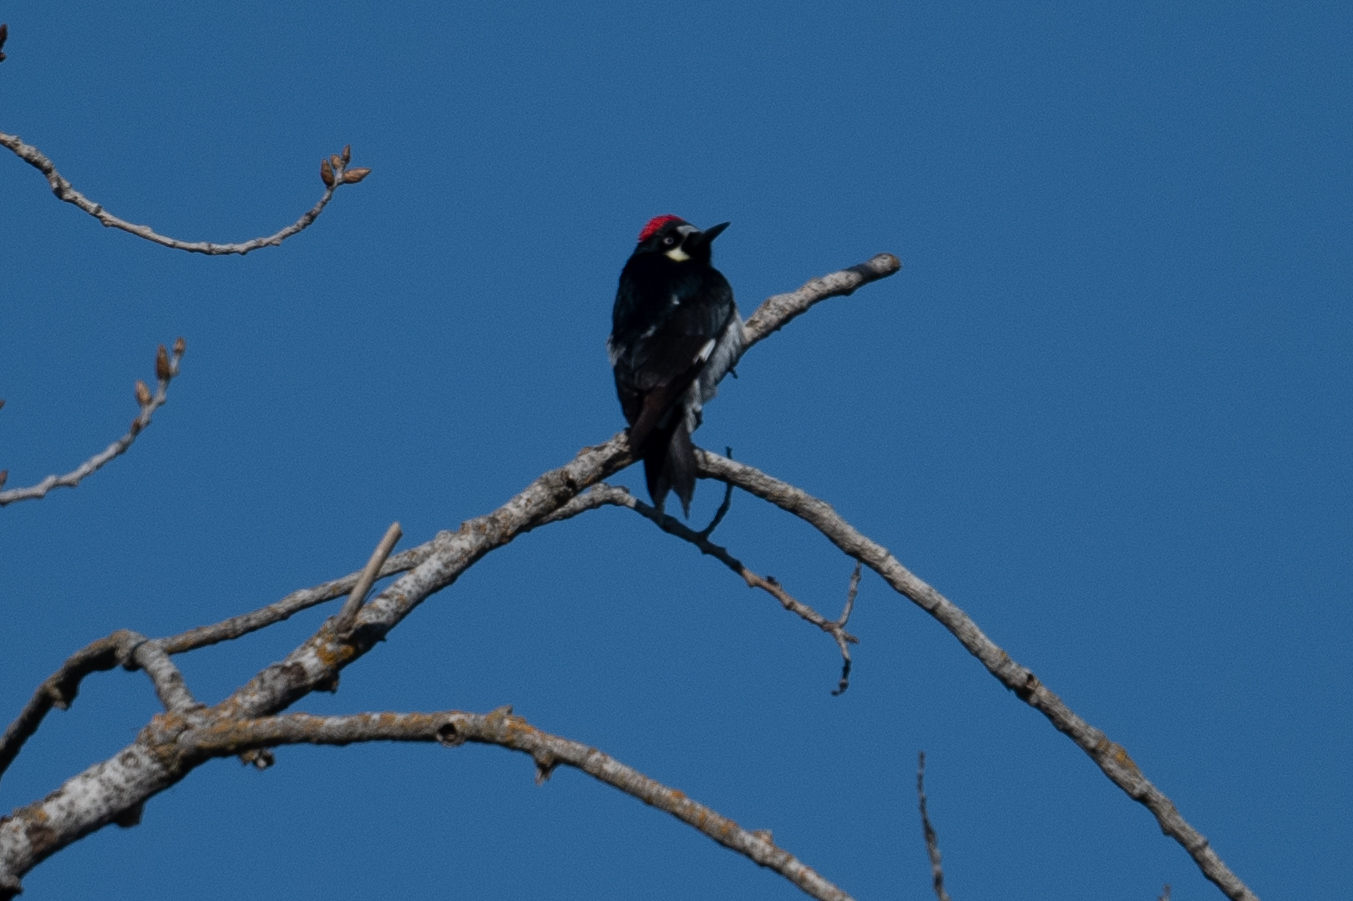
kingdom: Animalia
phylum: Chordata
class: Aves
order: Piciformes
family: Picidae
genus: Melanerpes
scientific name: Melanerpes formicivorus
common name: Acorn woodpecker
